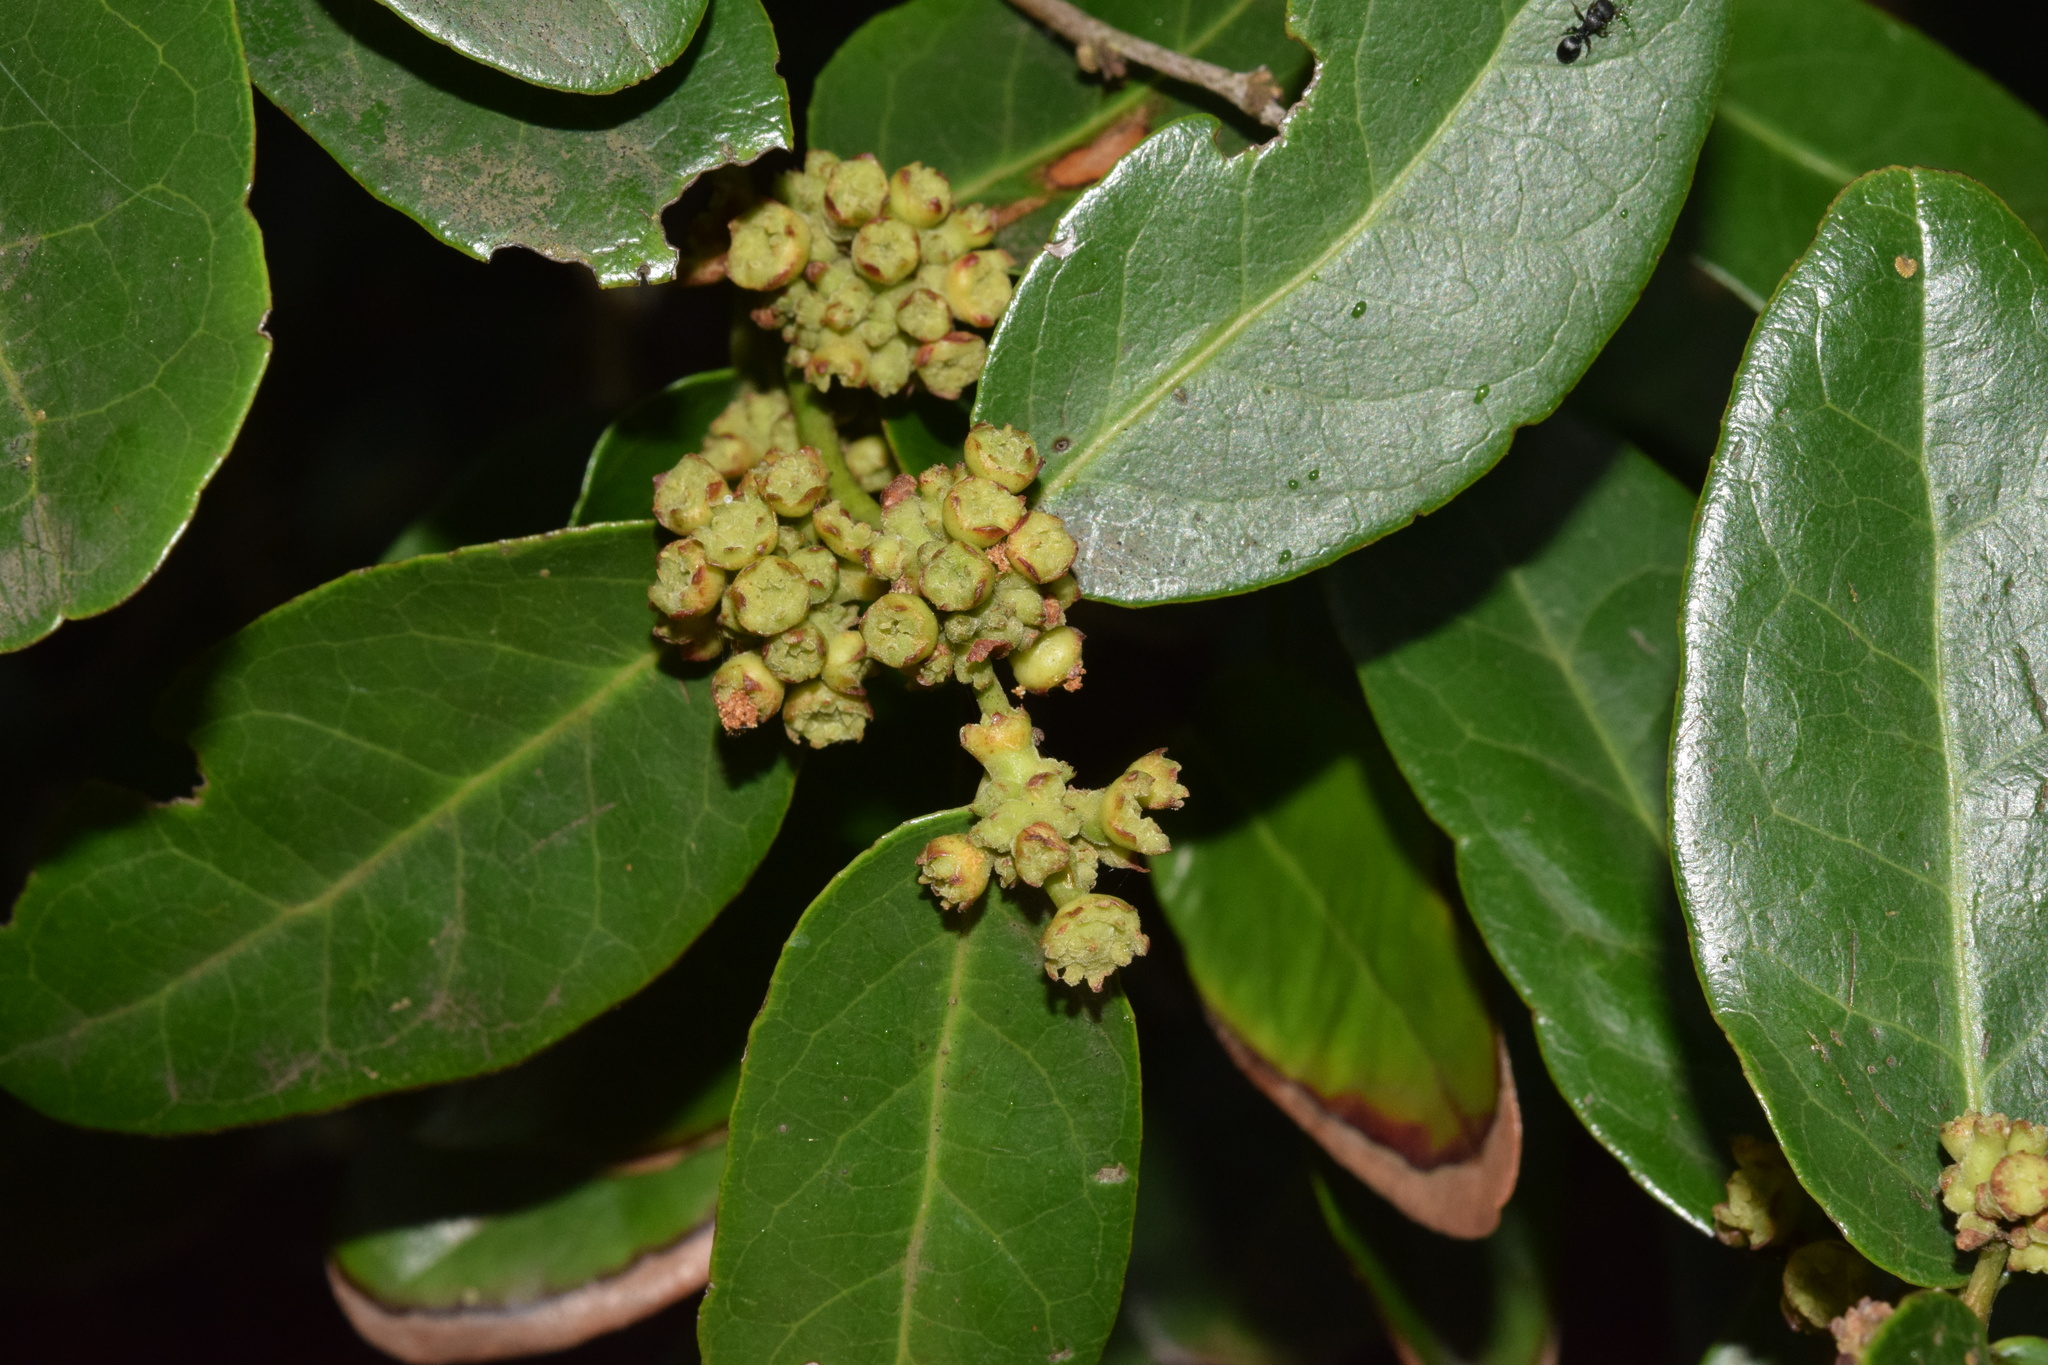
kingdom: Plantae
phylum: Tracheophyta
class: Magnoliopsida
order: Celastrales
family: Celastraceae
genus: Mystroxylon
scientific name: Mystroxylon aethiopicum
